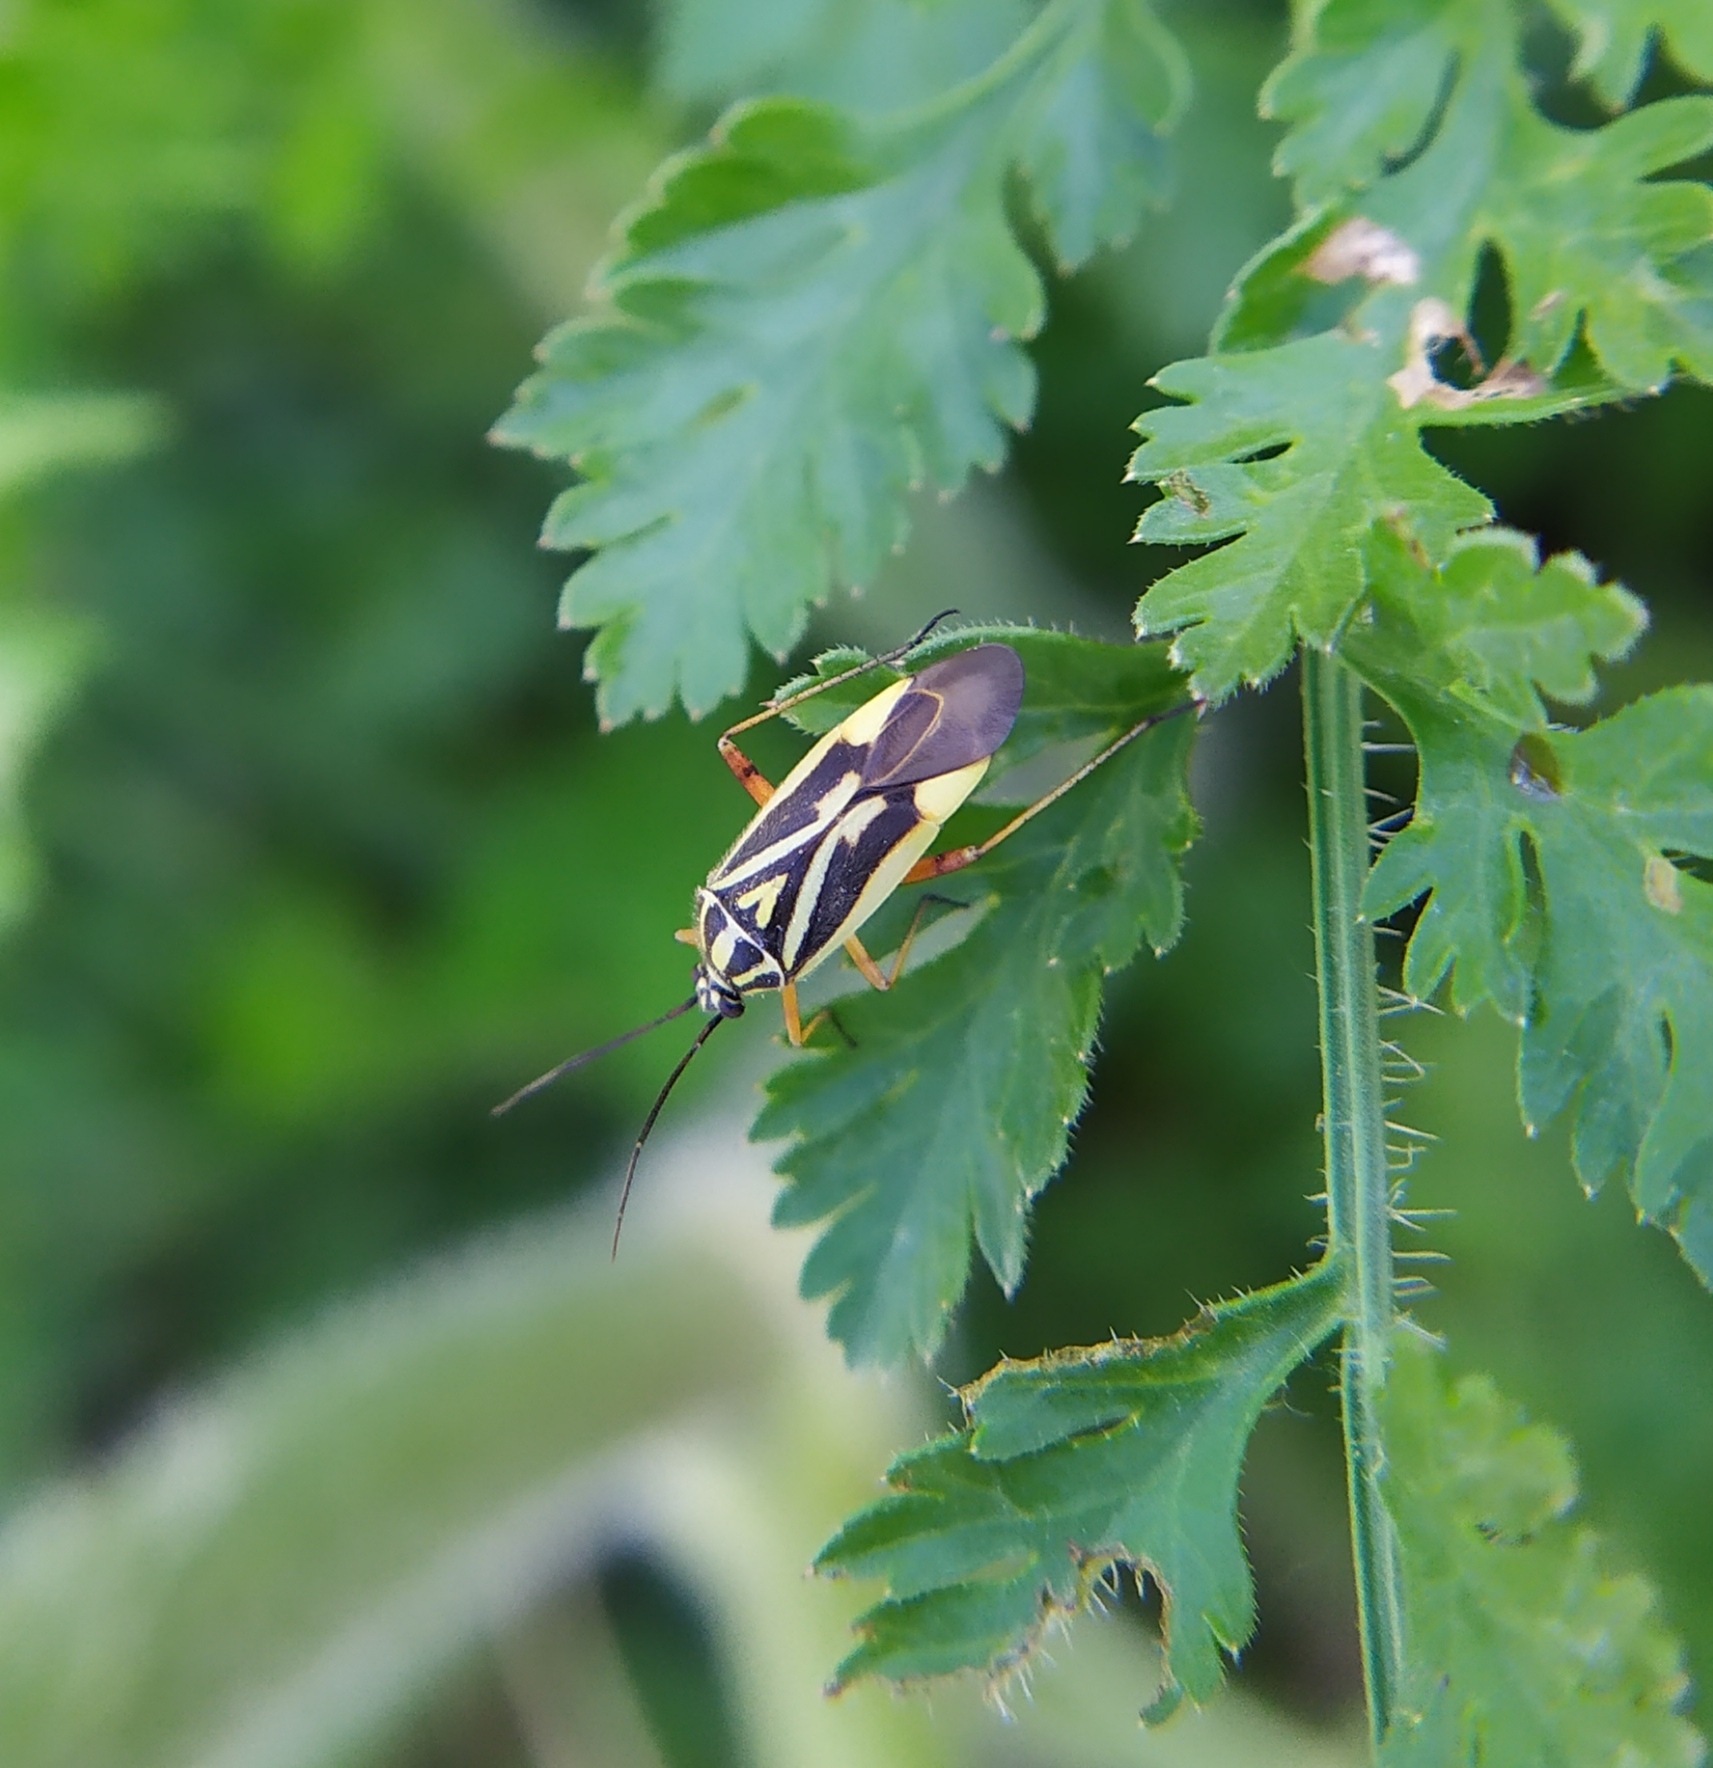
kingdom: Animalia
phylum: Arthropoda
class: Insecta
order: Hemiptera
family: Miridae
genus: Brachycoleus
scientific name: Brachycoleus decolor
